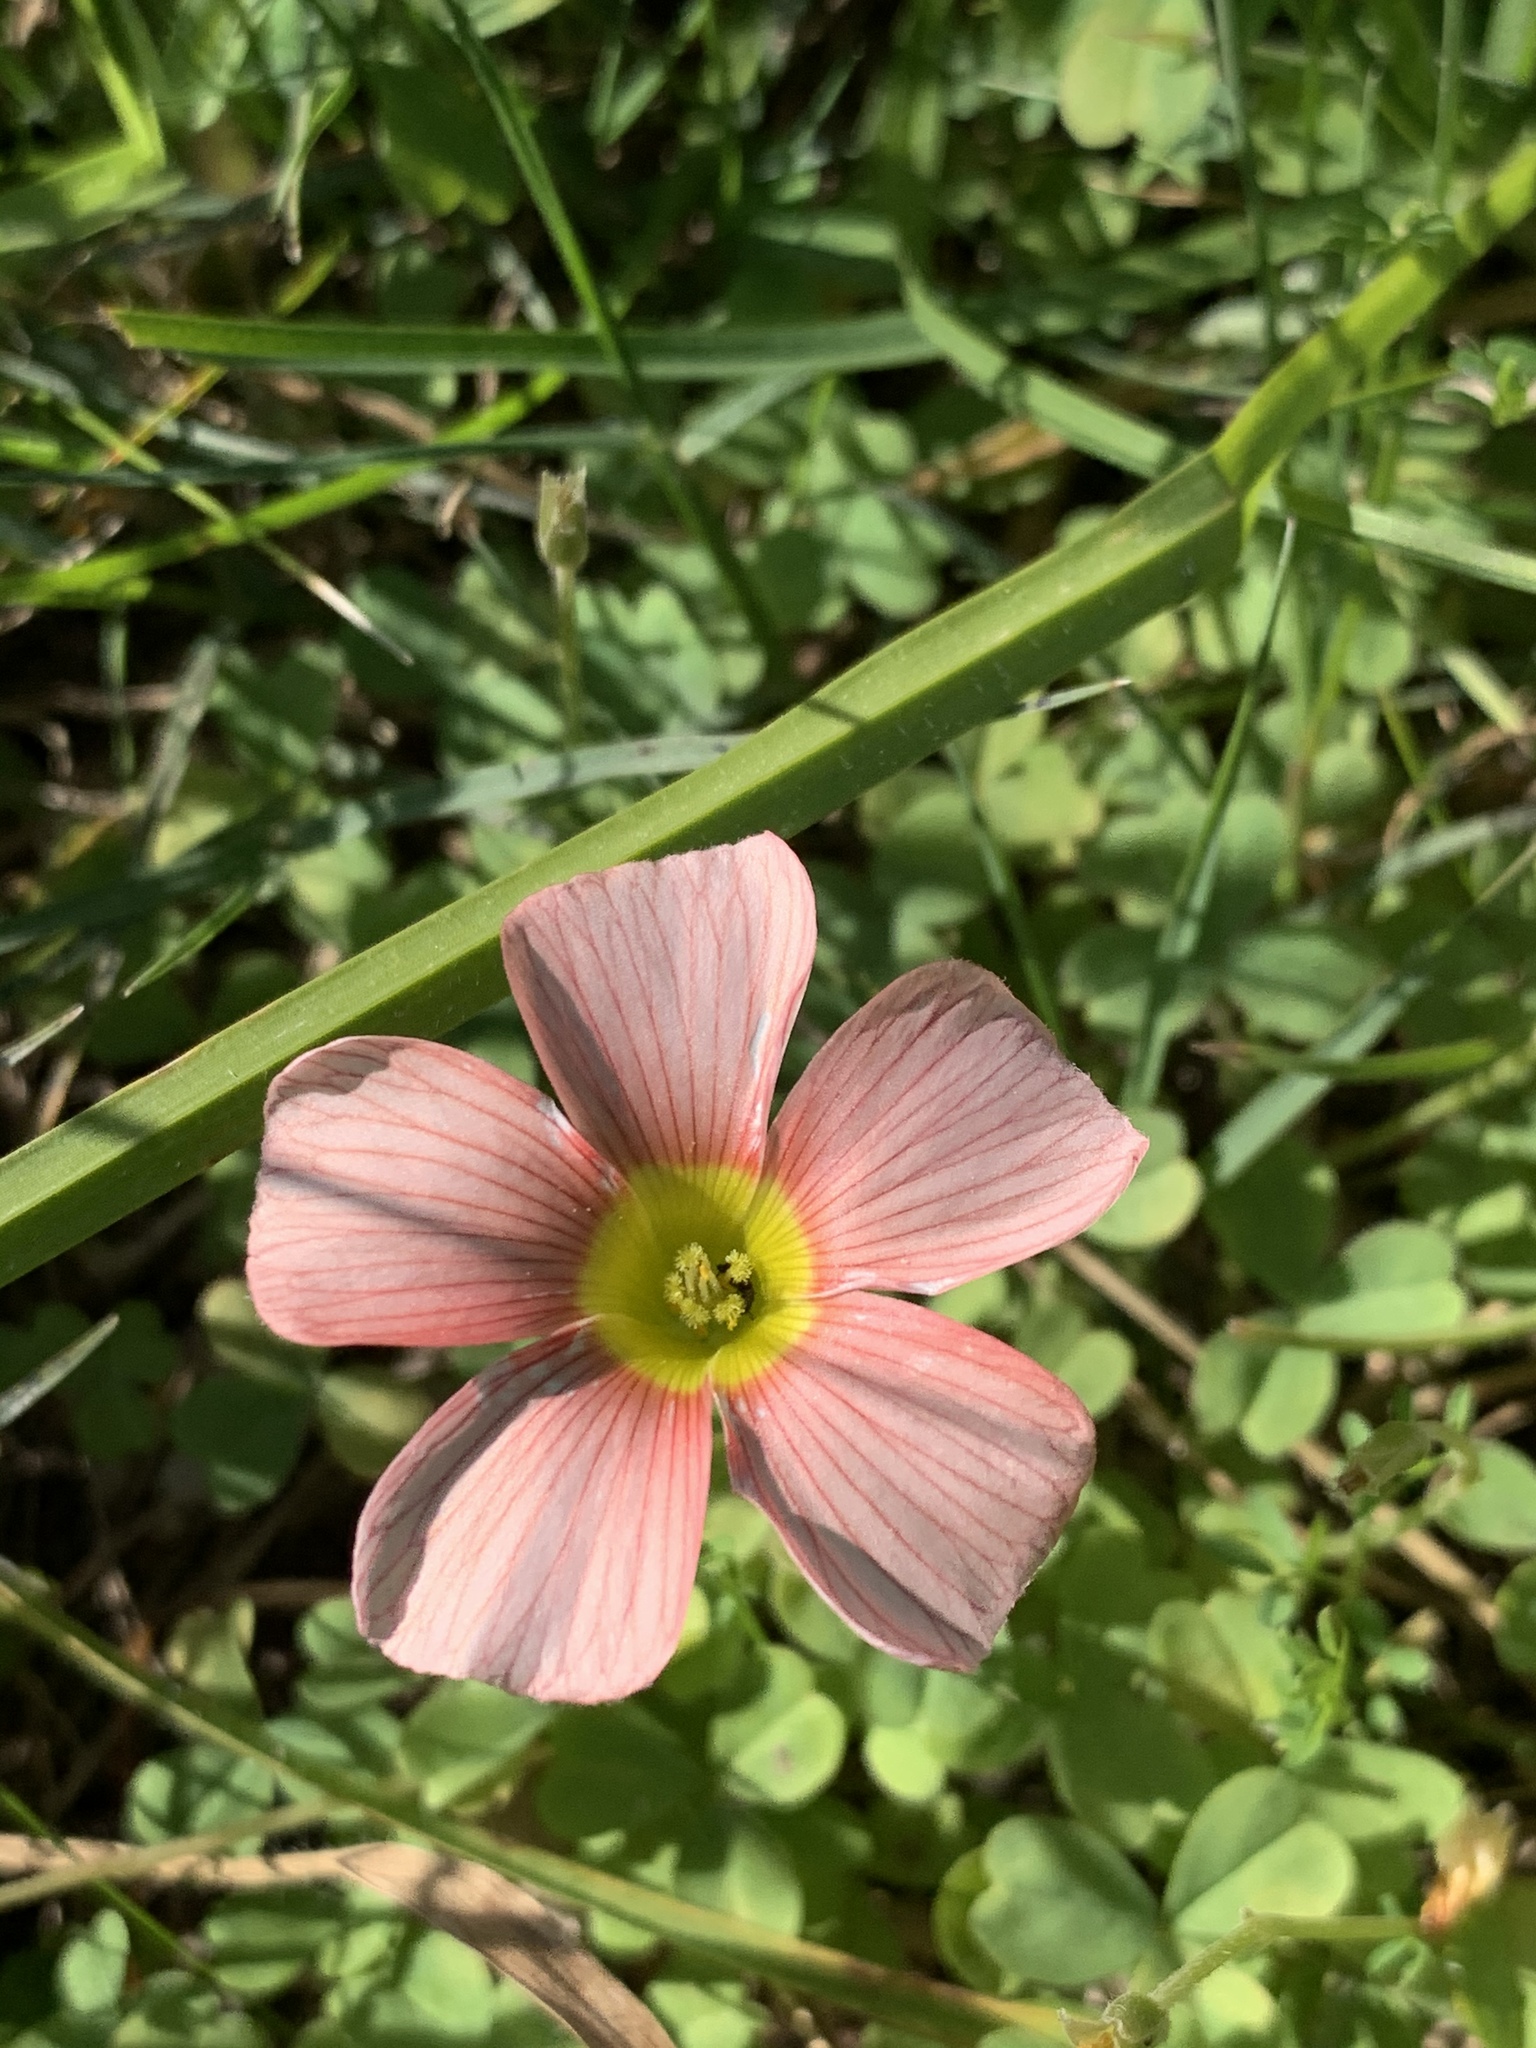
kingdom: Plantae
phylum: Tracheophyta
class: Magnoliopsida
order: Oxalidales
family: Oxalidaceae
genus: Oxalis
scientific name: Oxalis obtusa
